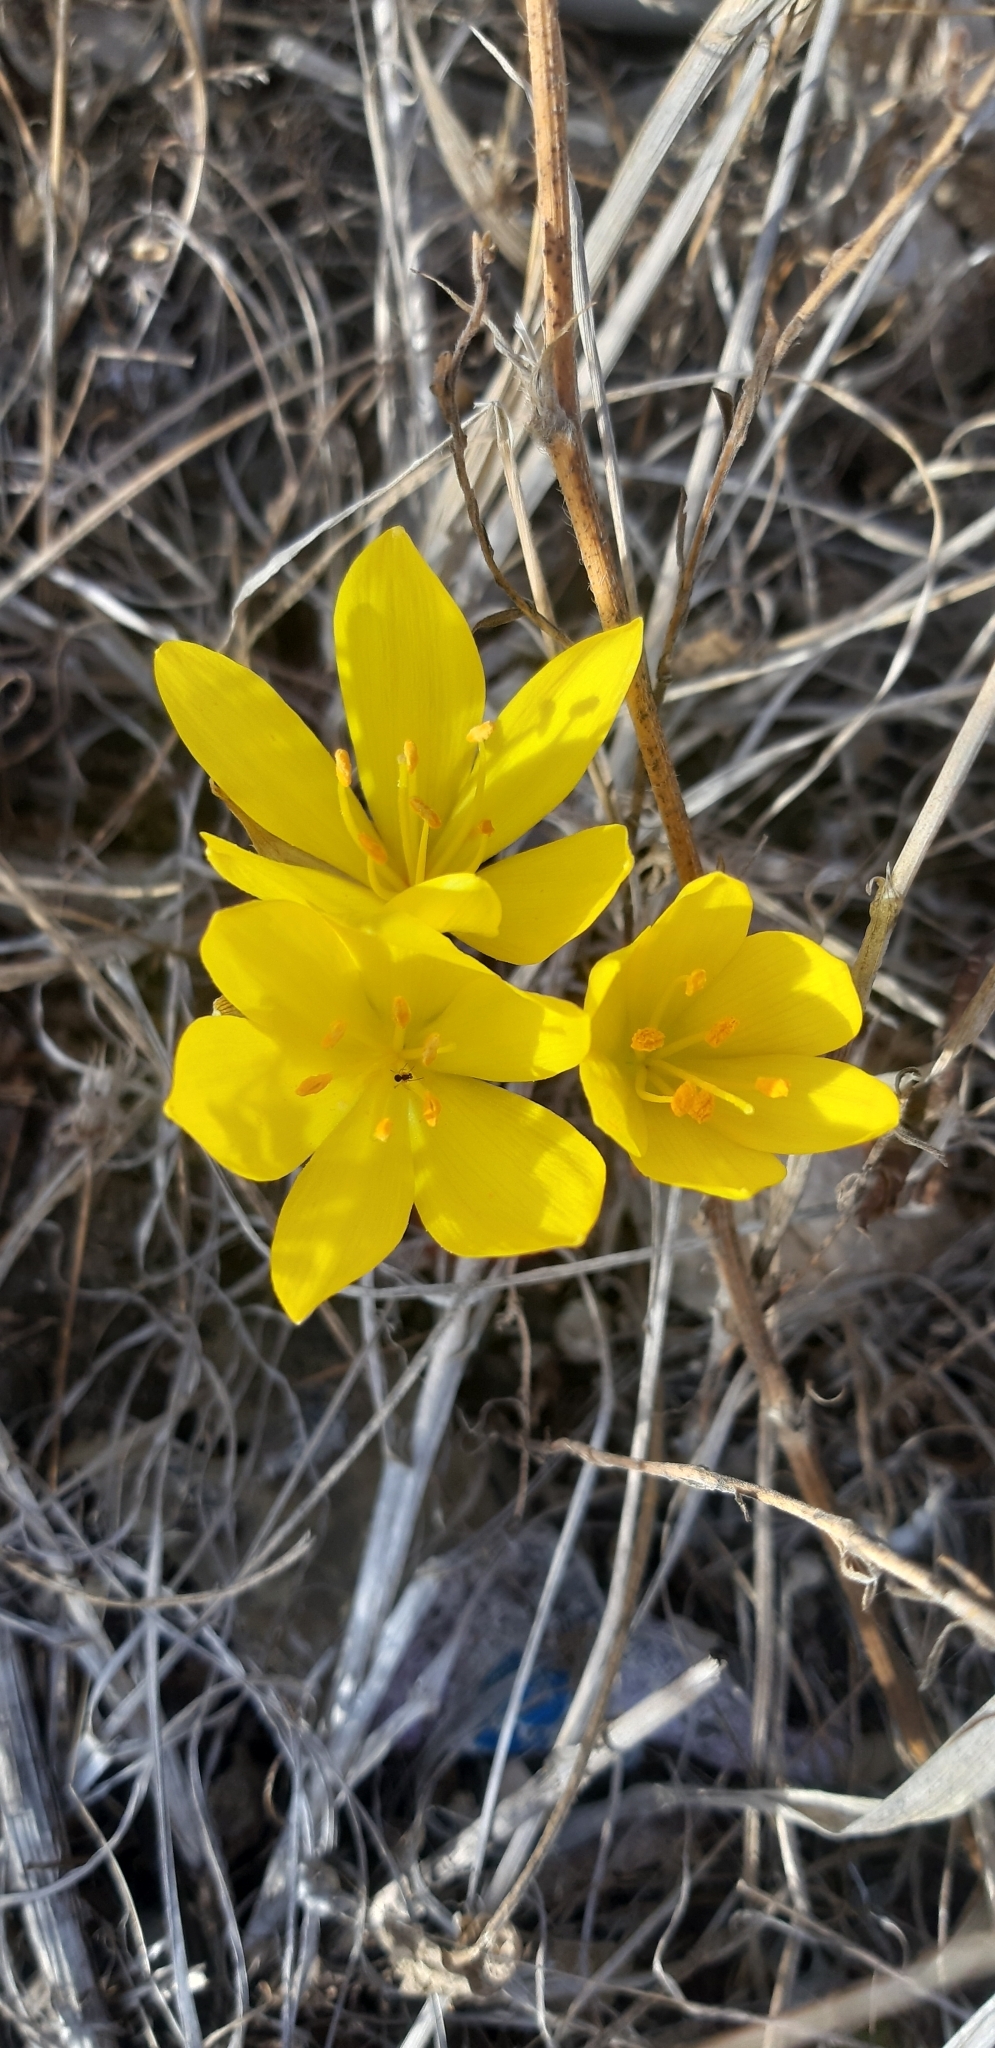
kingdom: Plantae
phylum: Tracheophyta
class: Liliopsida
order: Asparagales
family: Amaryllidaceae
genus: Sternbergia
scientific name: Sternbergia lutea
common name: Winter daffodil
